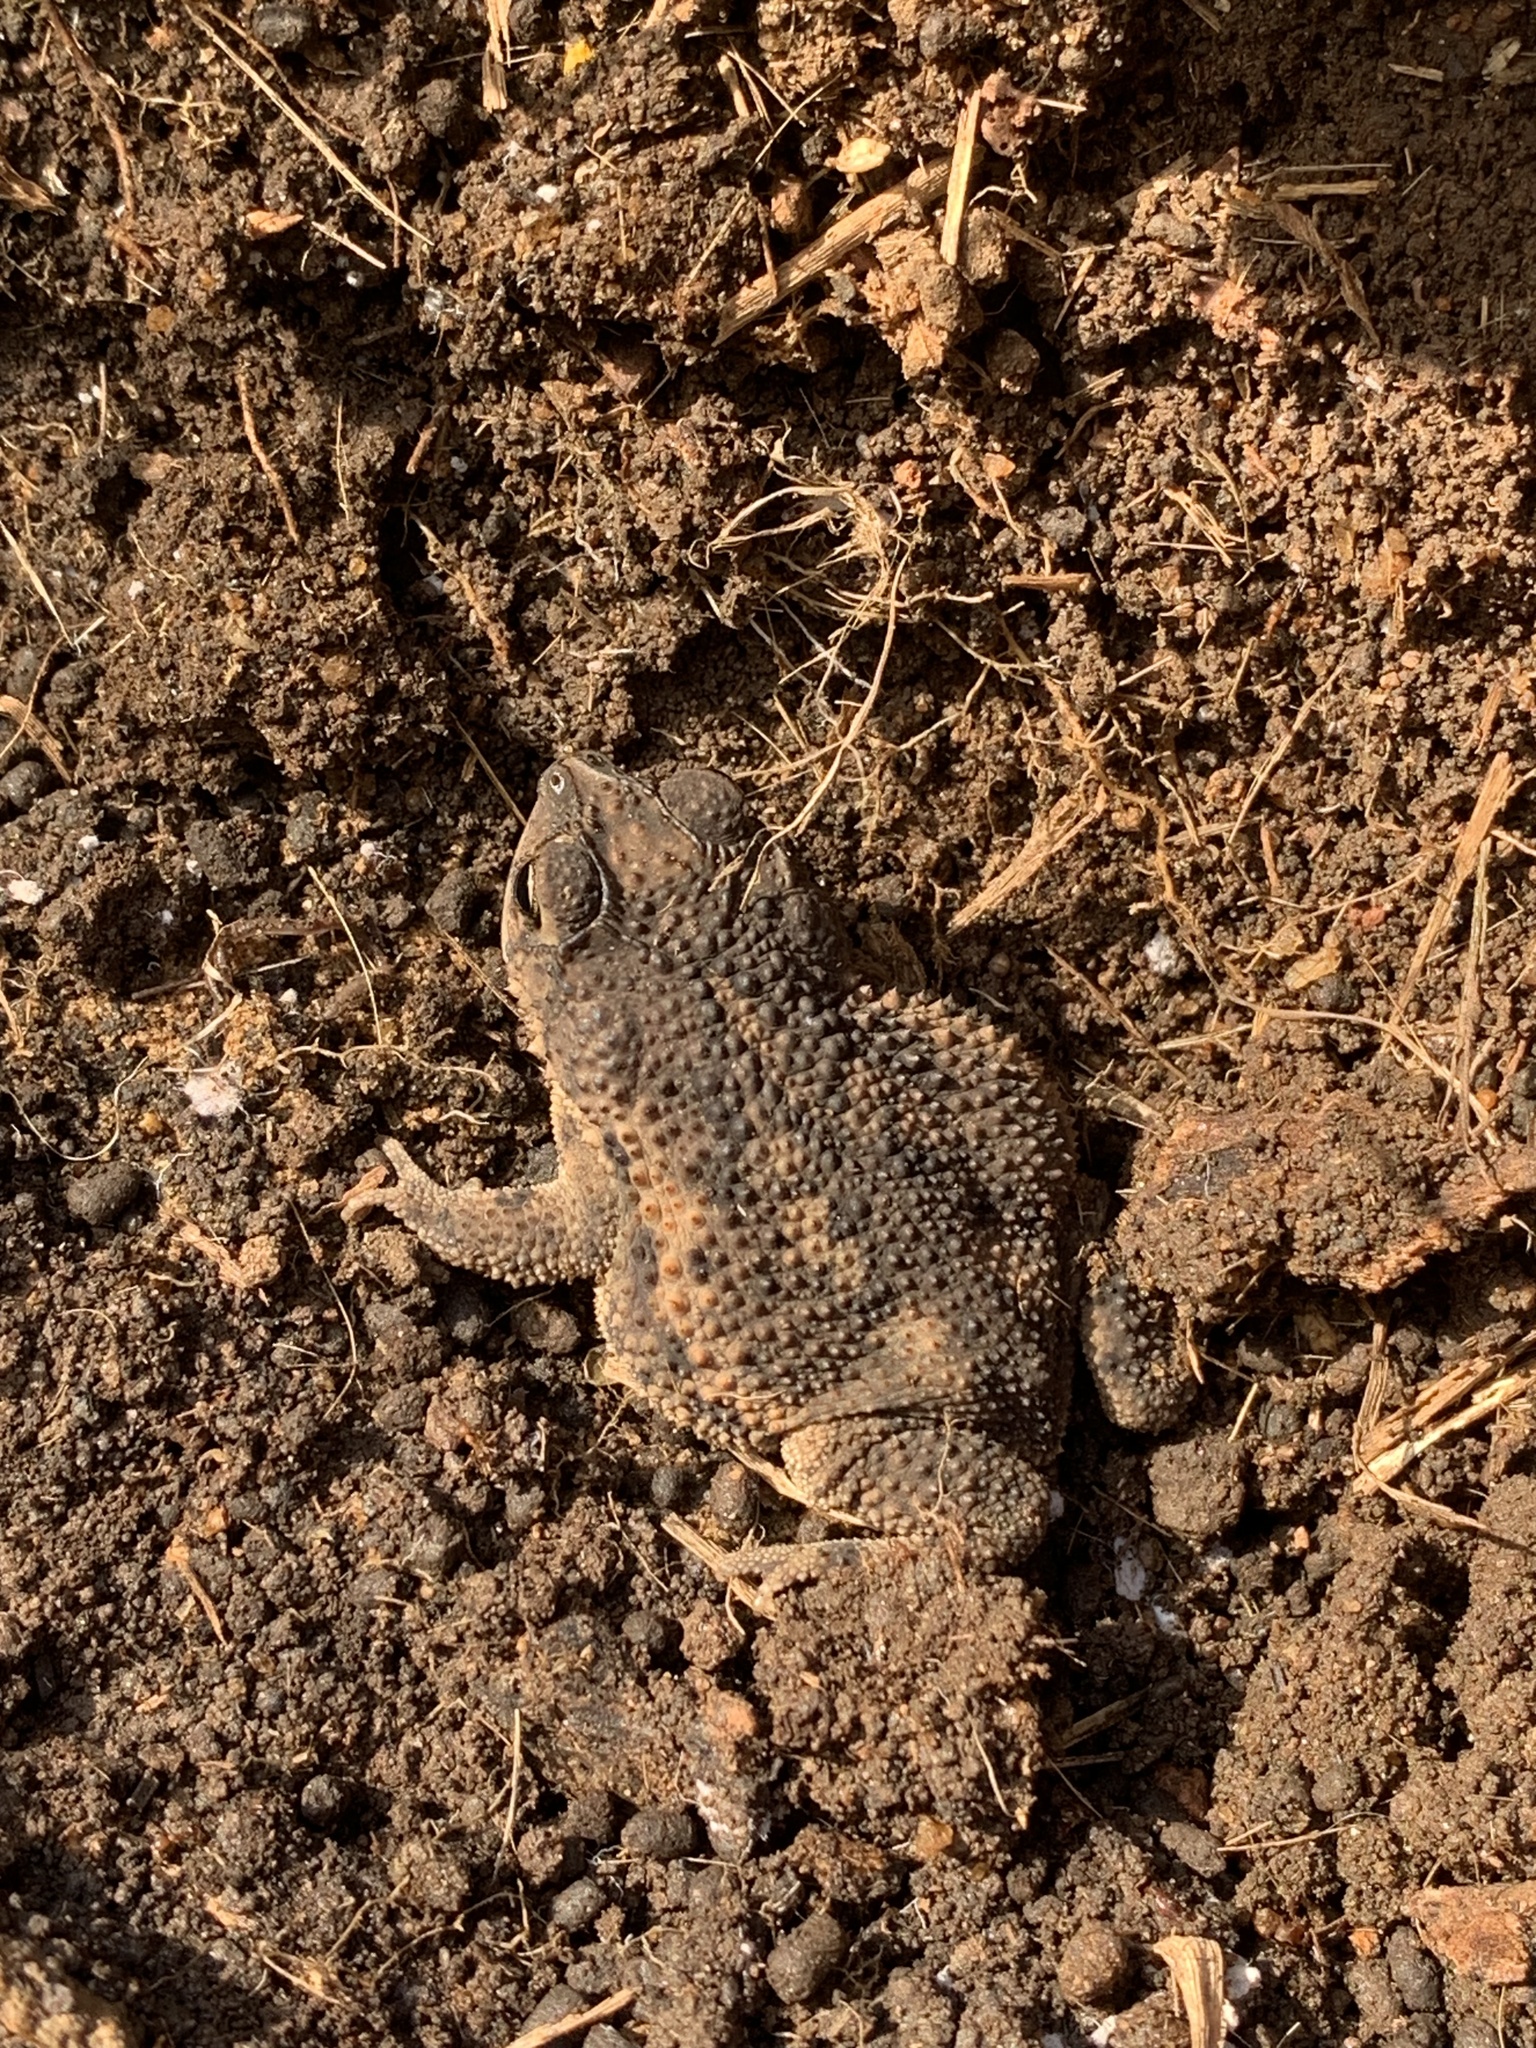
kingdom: Animalia
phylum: Chordata
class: Amphibia
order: Anura
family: Bufonidae
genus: Rhinella
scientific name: Rhinella granulosa
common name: Common lesser toad
